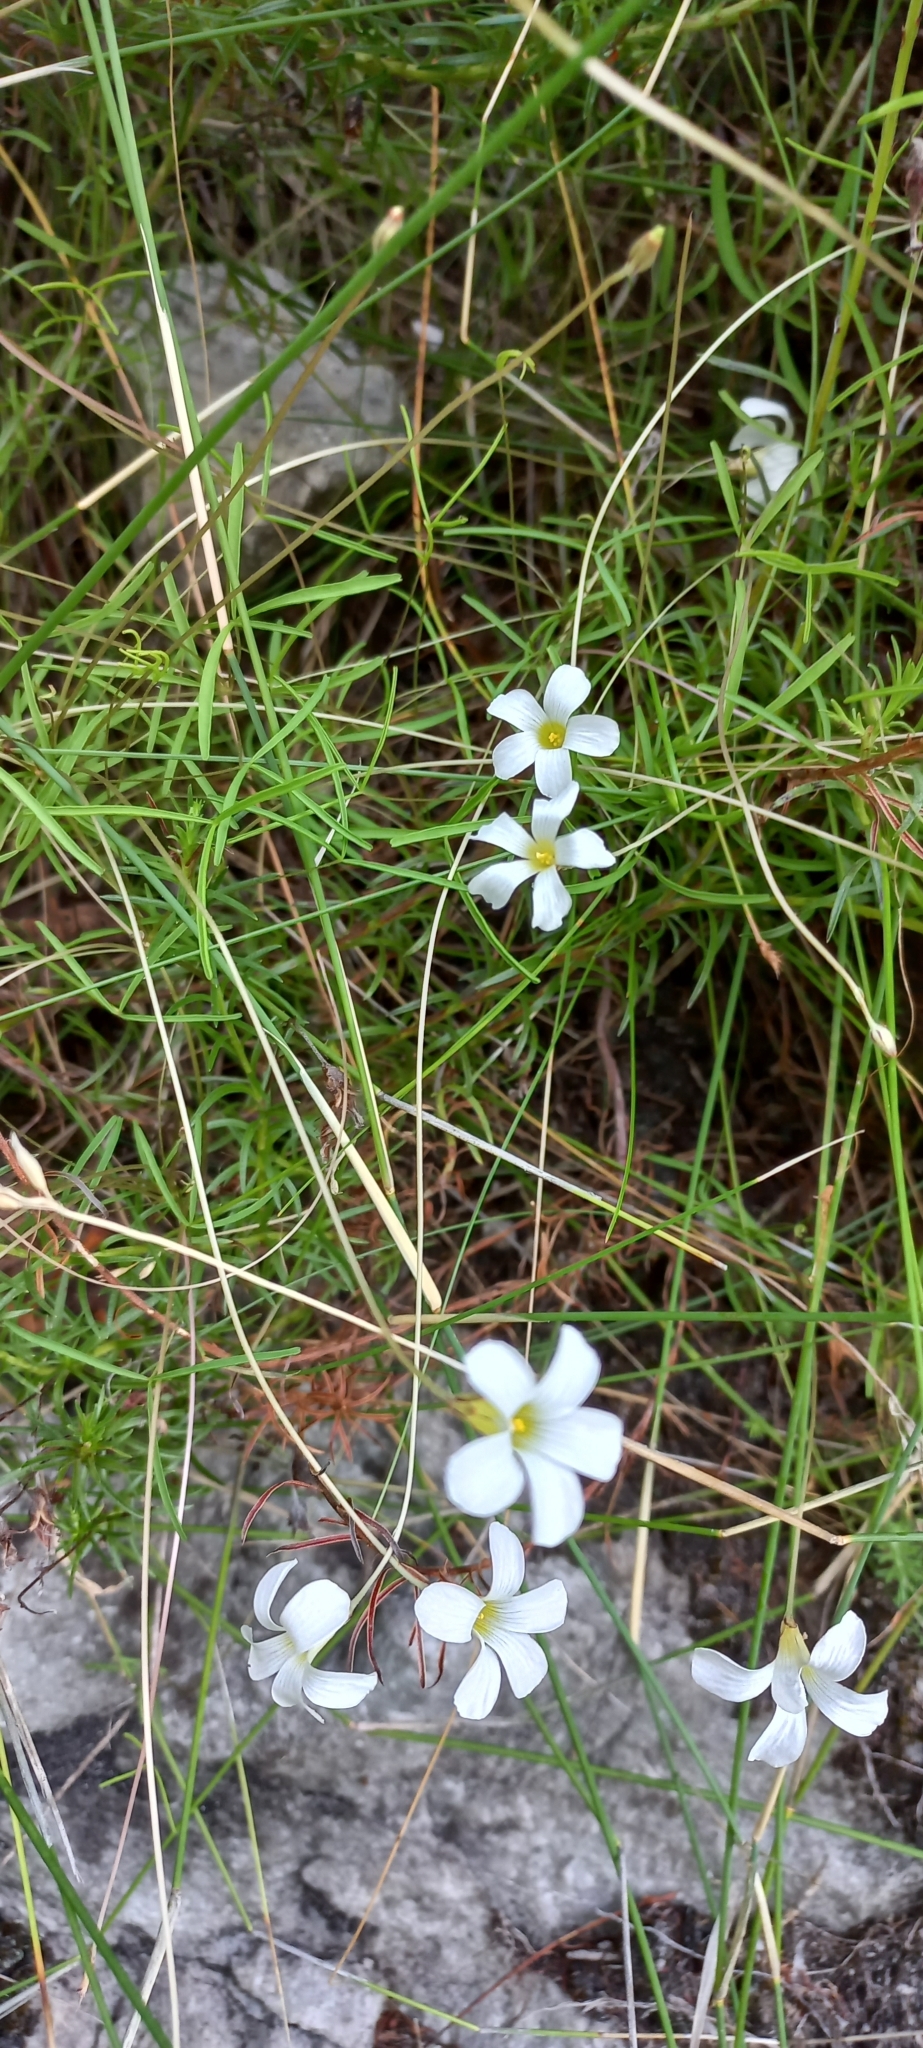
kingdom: Plantae
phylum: Tracheophyta
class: Magnoliopsida
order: Oxalidales
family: Oxalidaceae
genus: Oxalis
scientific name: Oxalis polyphylla
